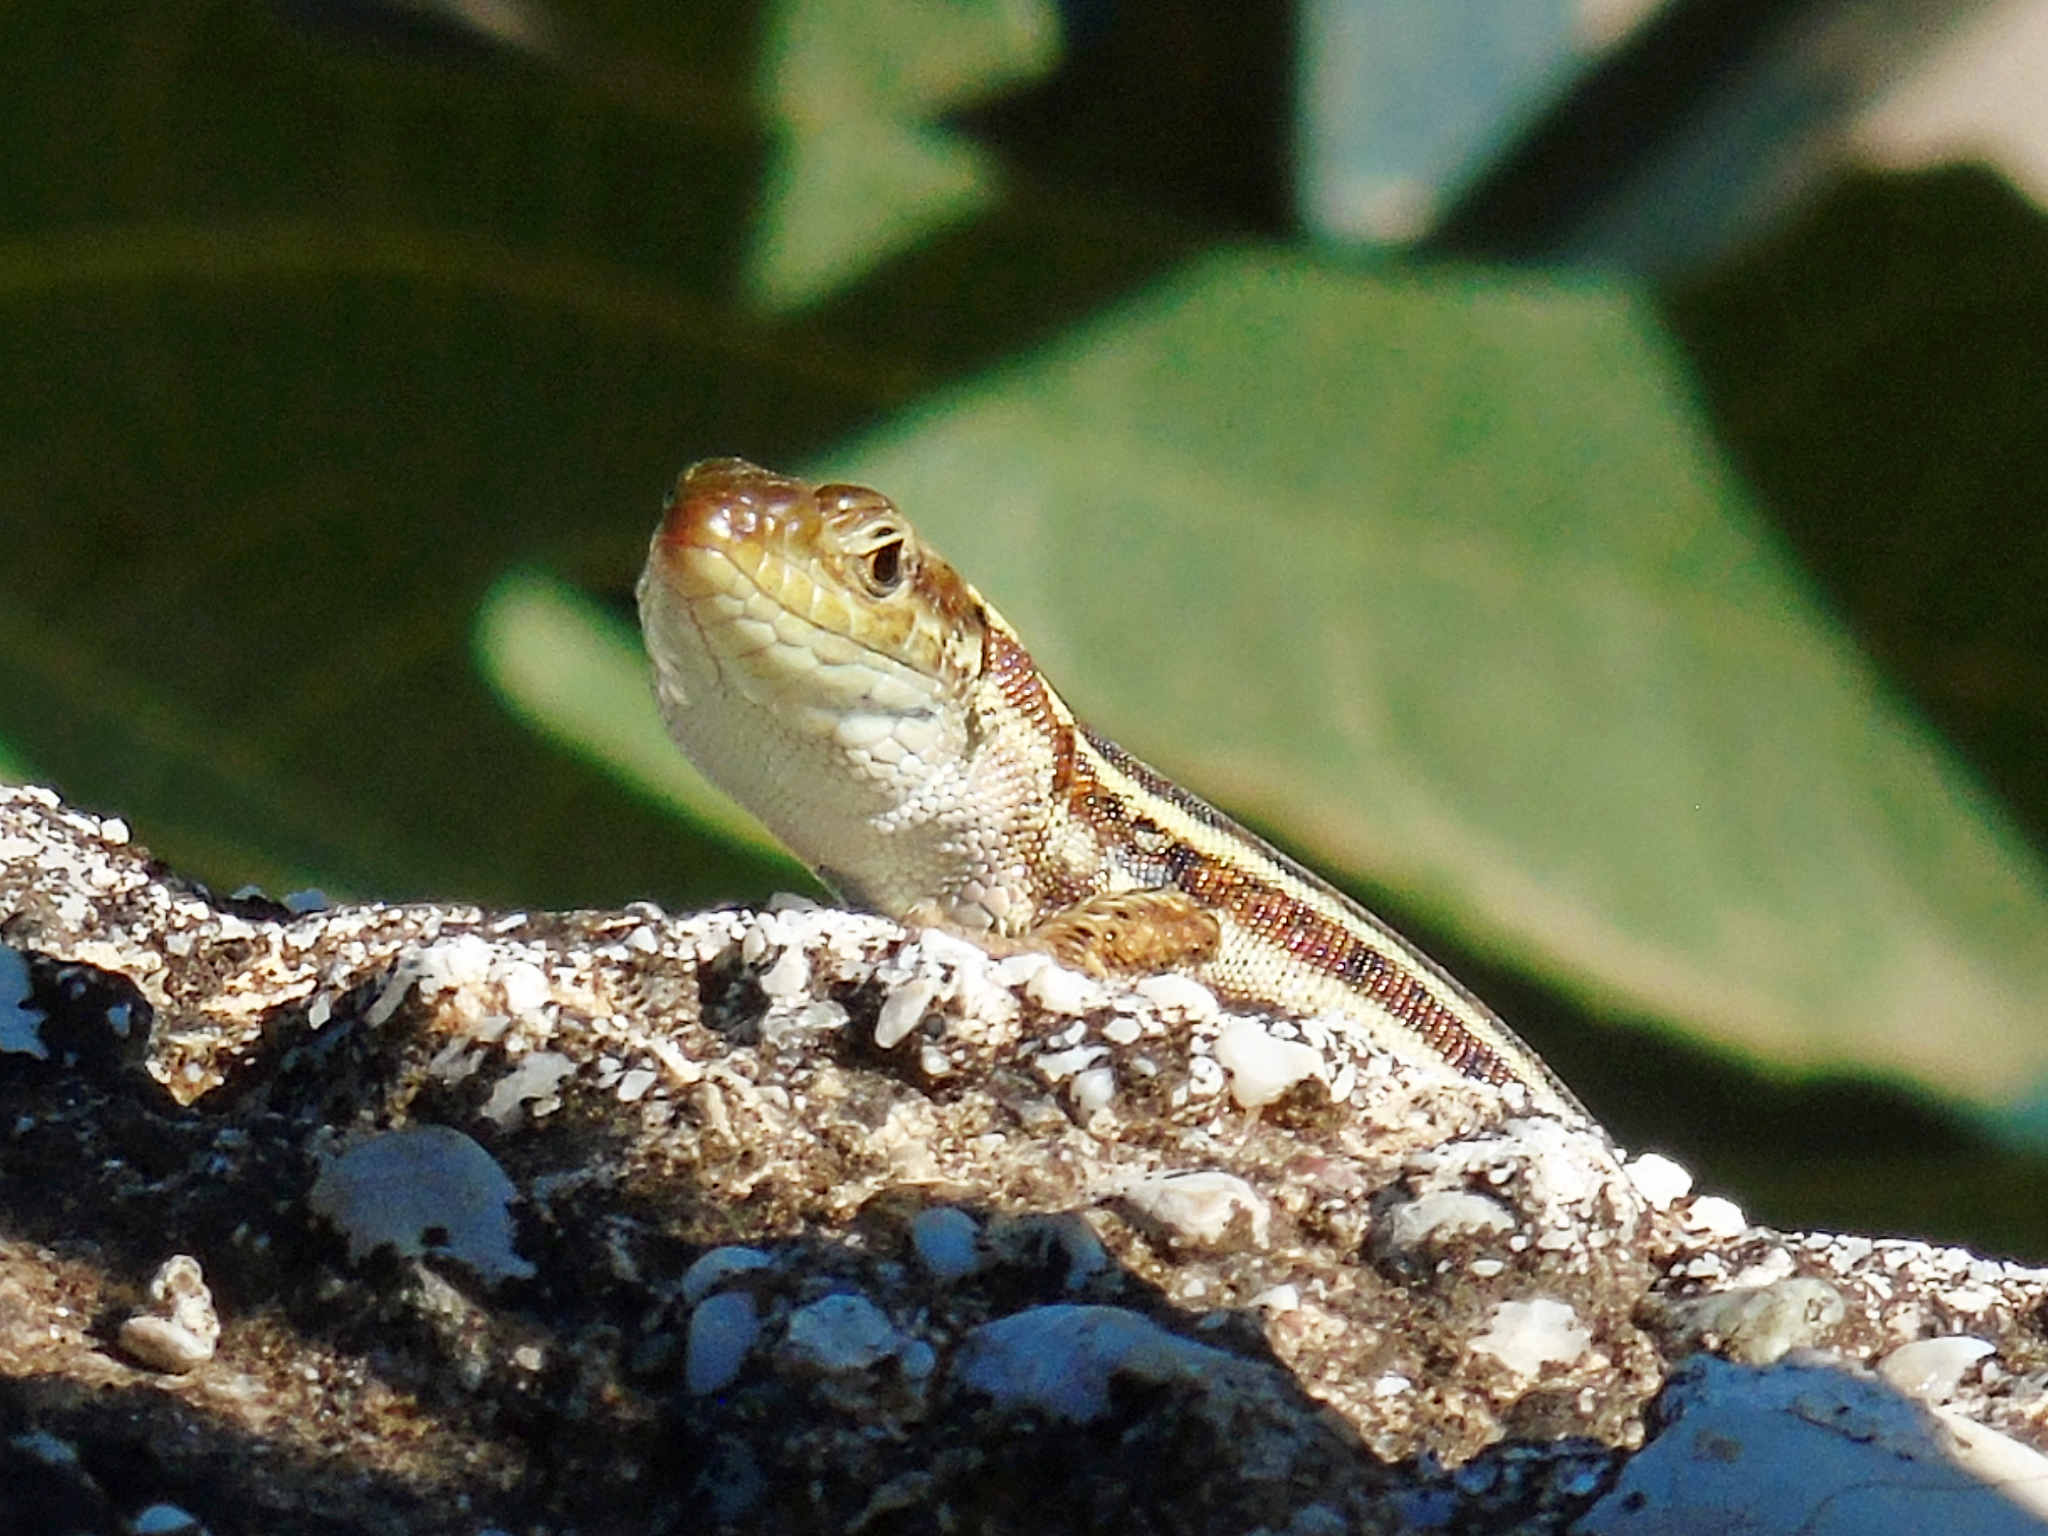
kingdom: Animalia
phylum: Chordata
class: Squamata
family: Lacertidae
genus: Podarcis
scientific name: Podarcis peloponnesiacus
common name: Peloponnese wall lizard
